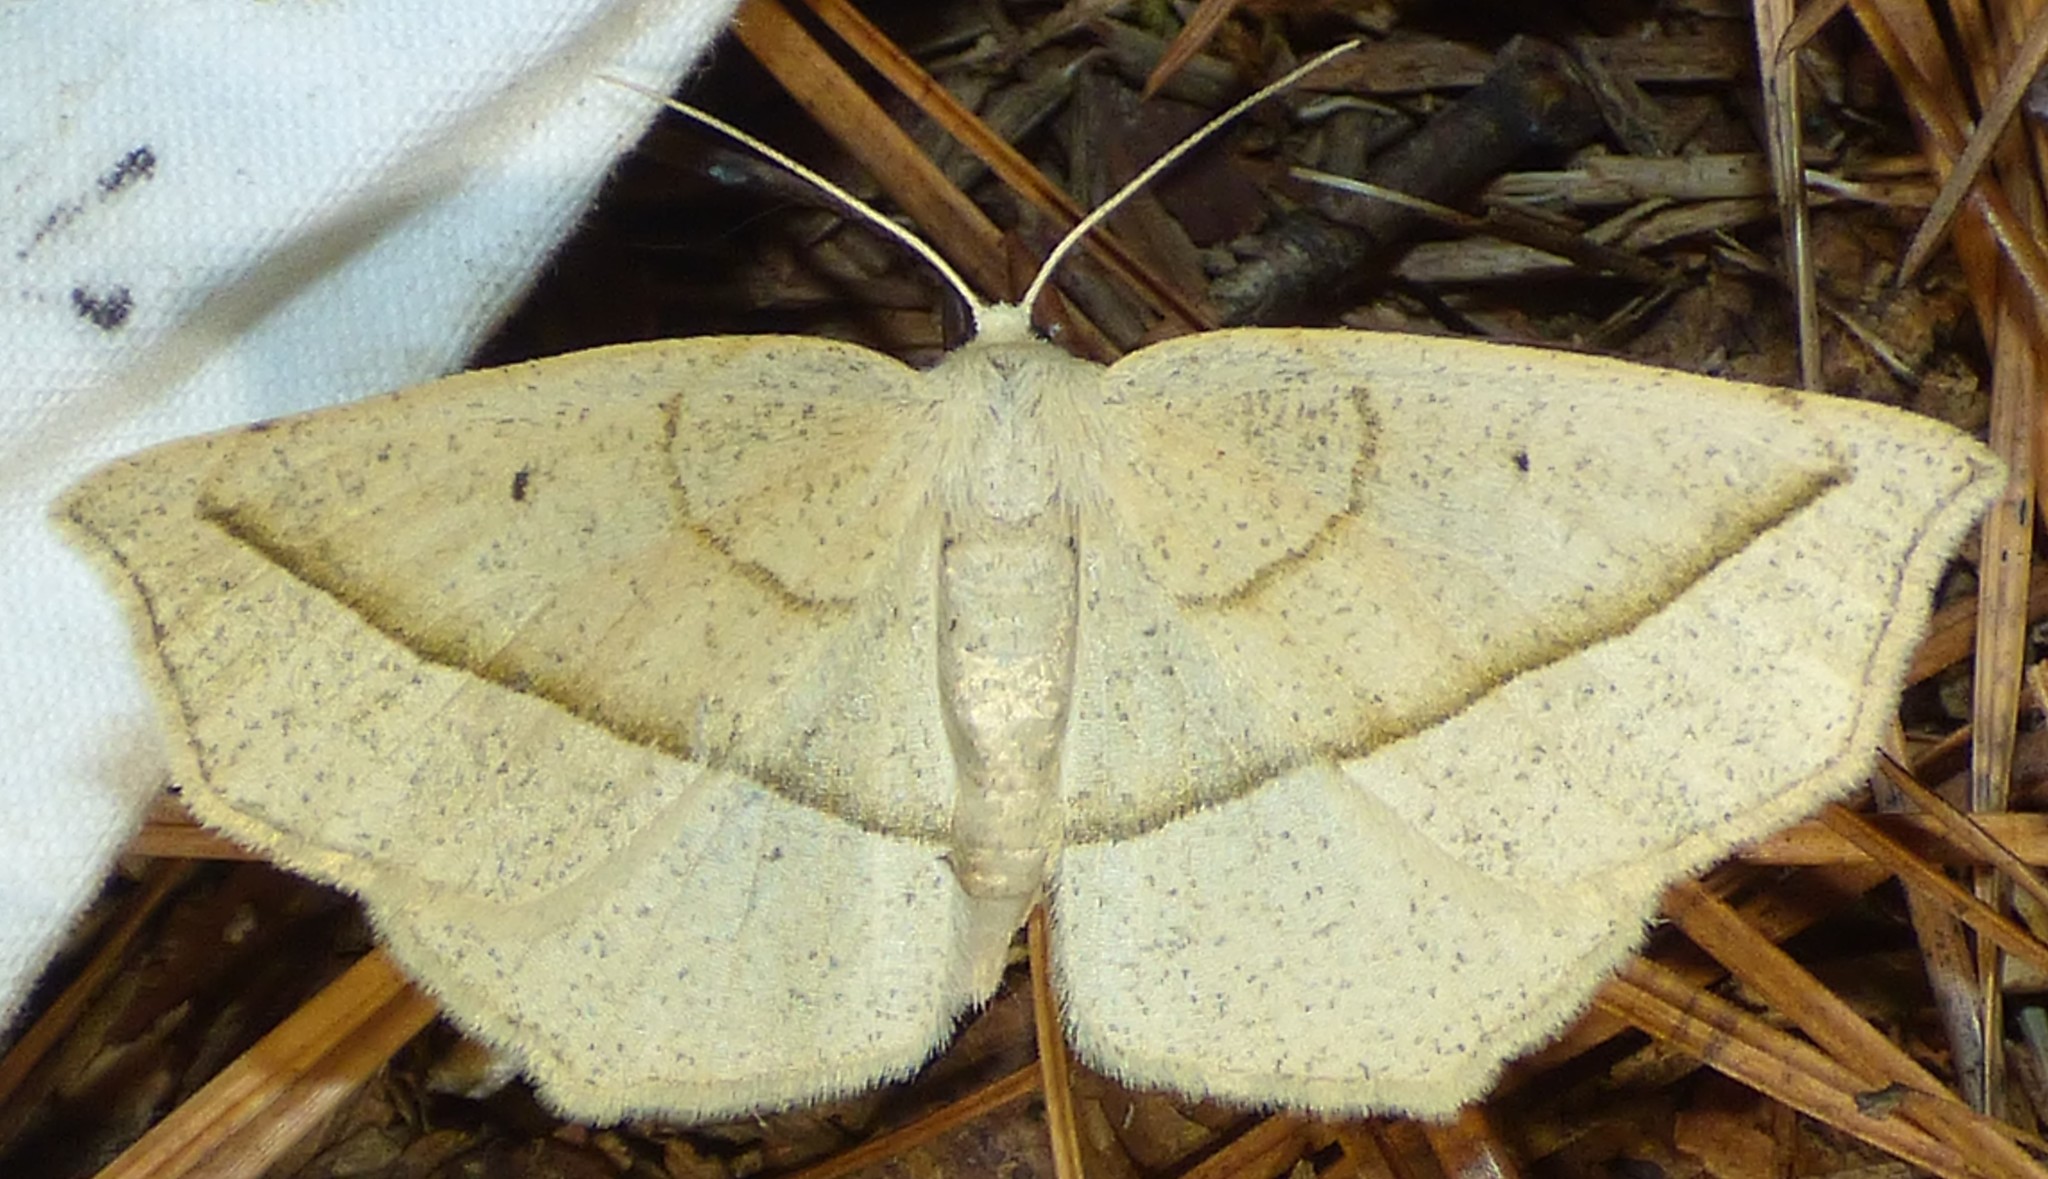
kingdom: Animalia
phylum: Arthropoda
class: Insecta
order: Lepidoptera
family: Geometridae
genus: Eusarca
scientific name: Eusarca confusaria
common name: Confused eusarca
